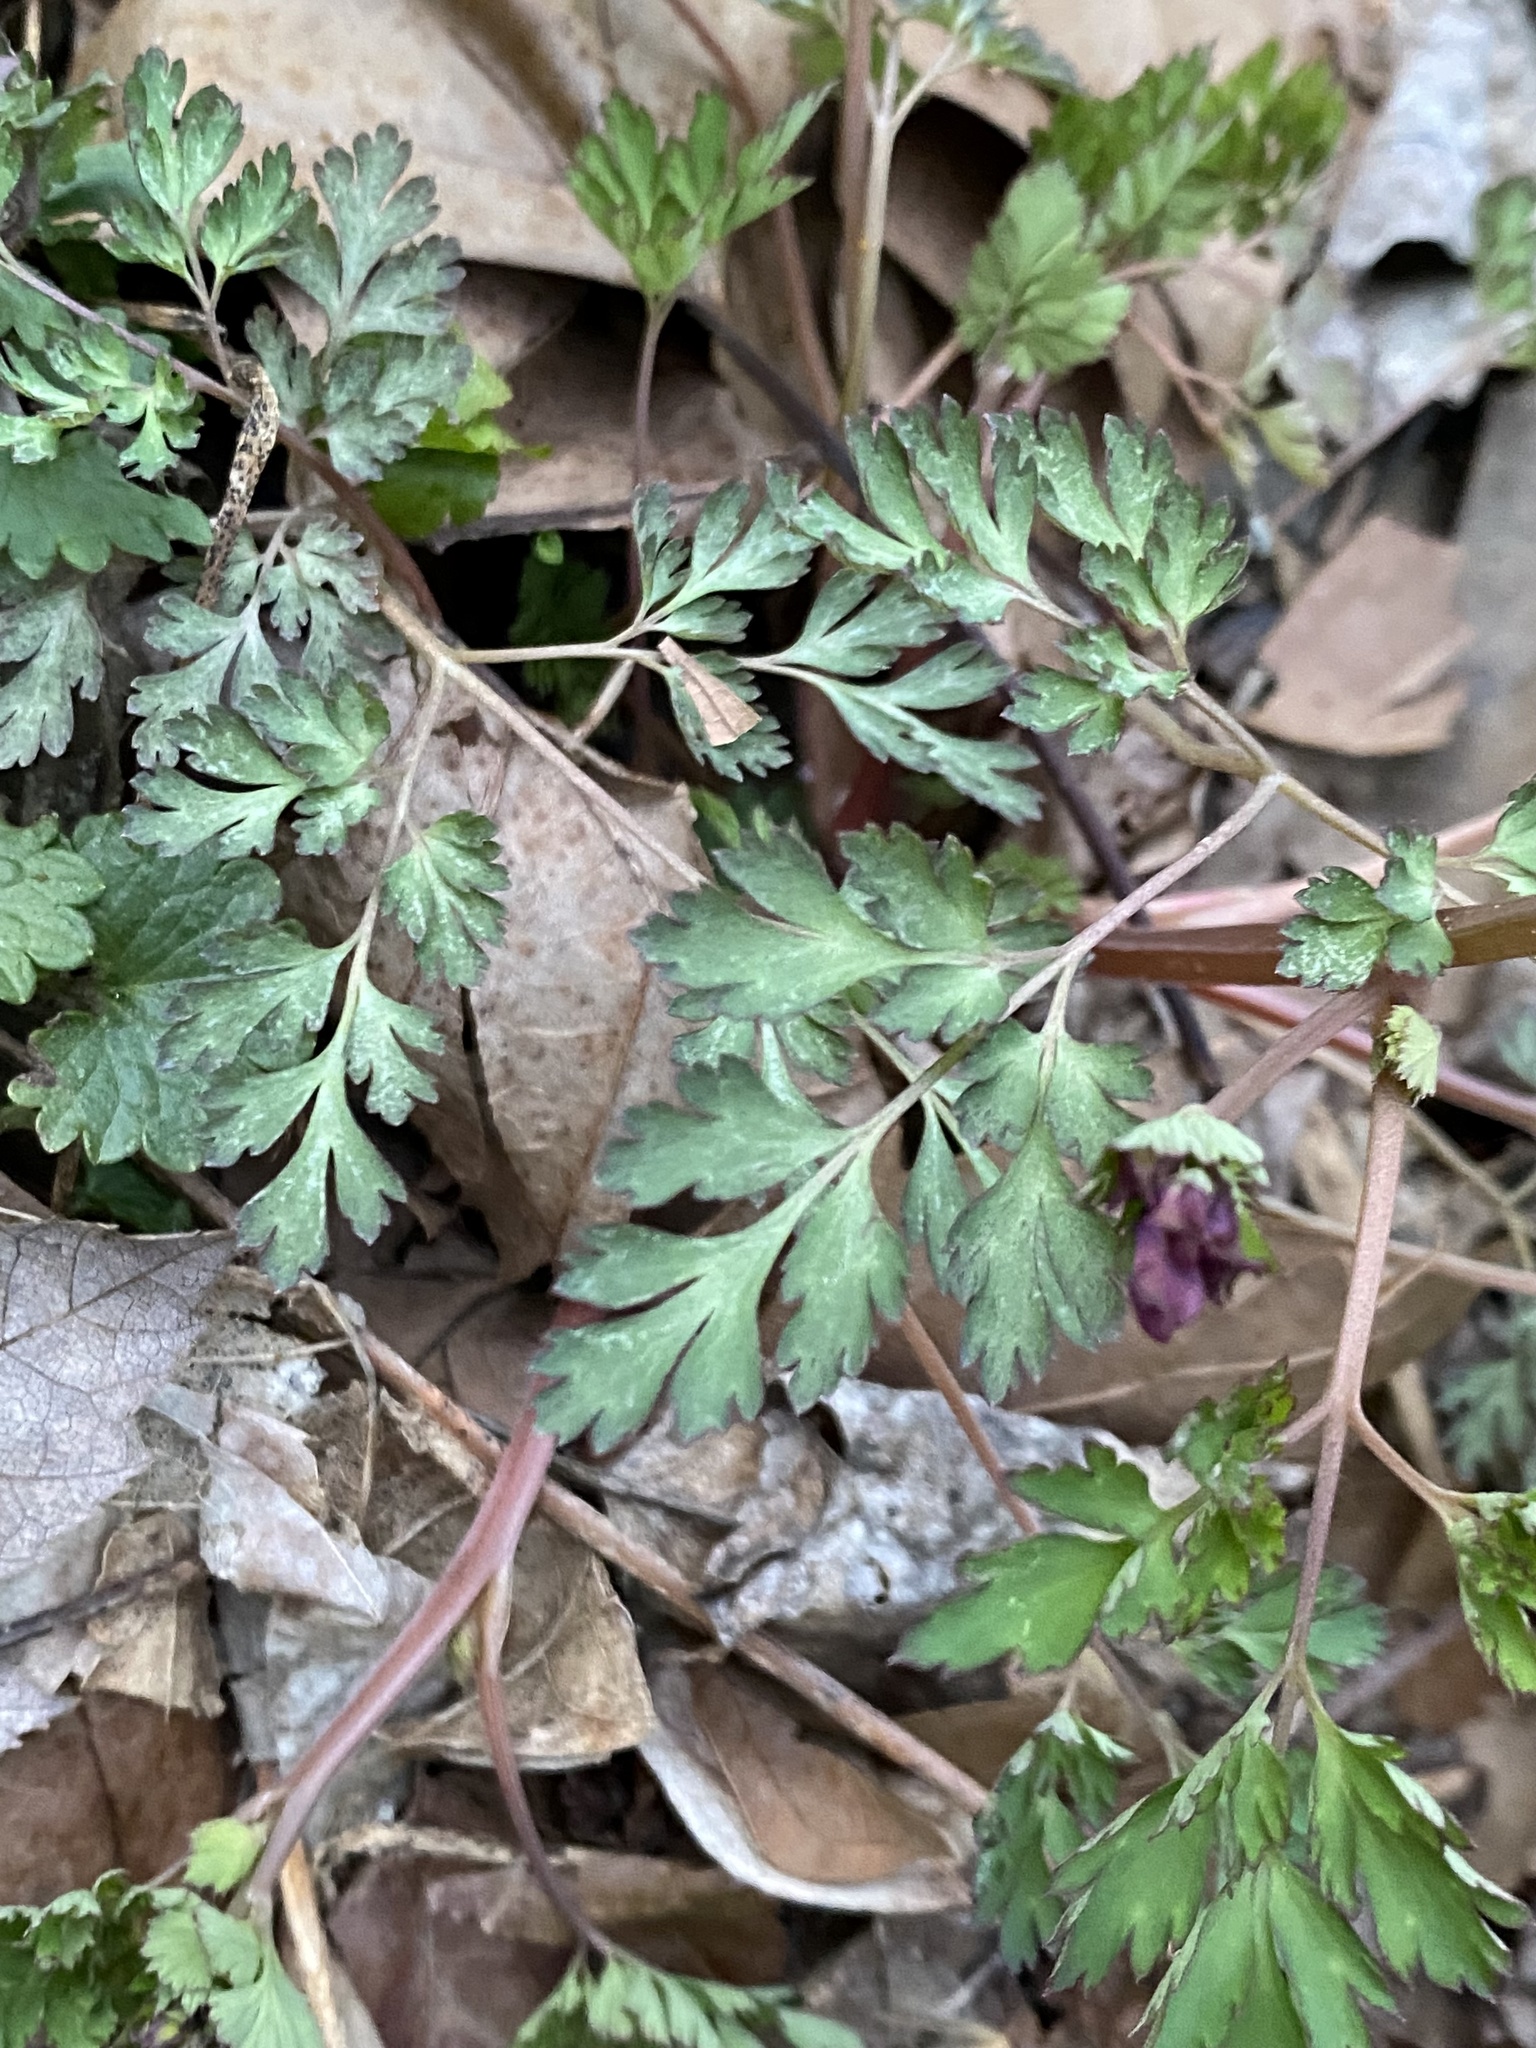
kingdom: Plantae
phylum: Tracheophyta
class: Magnoliopsida
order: Ranunculales
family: Papaveraceae
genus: Corydalis
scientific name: Corydalis incisa
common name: Incised fumewort
